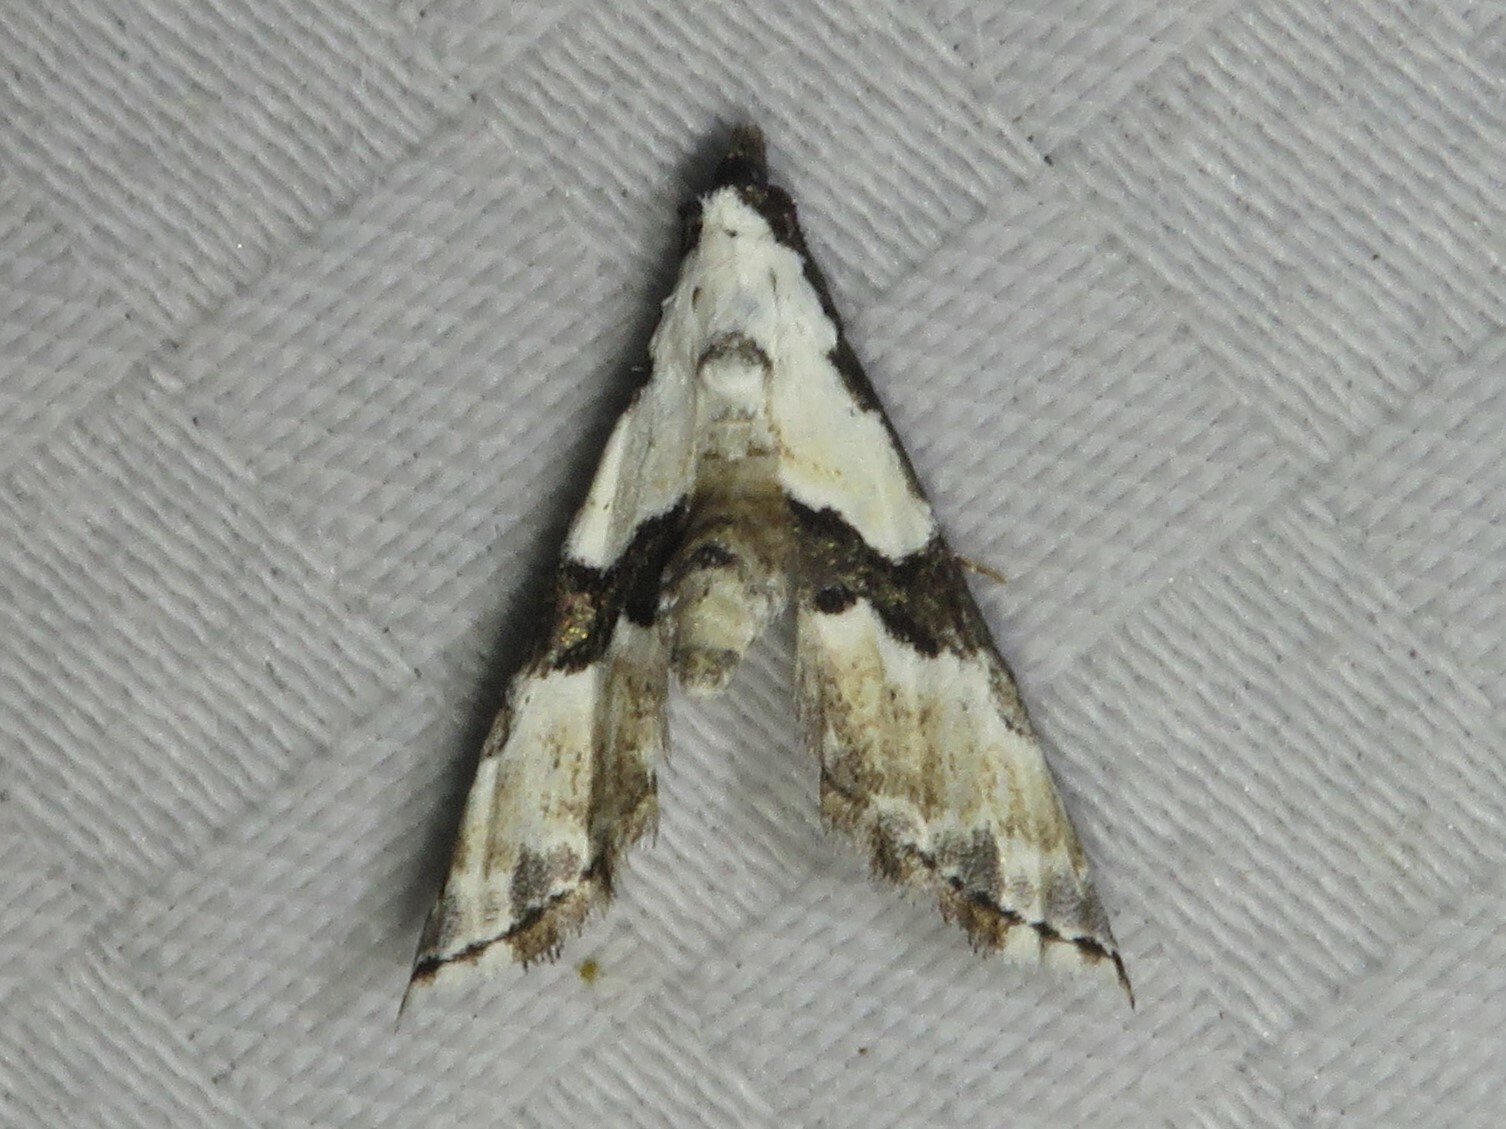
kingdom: Animalia
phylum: Arthropoda
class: Insecta
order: Lepidoptera
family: Noctuidae
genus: Nigetia
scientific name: Nigetia formosalis
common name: Thin-winged owlet
